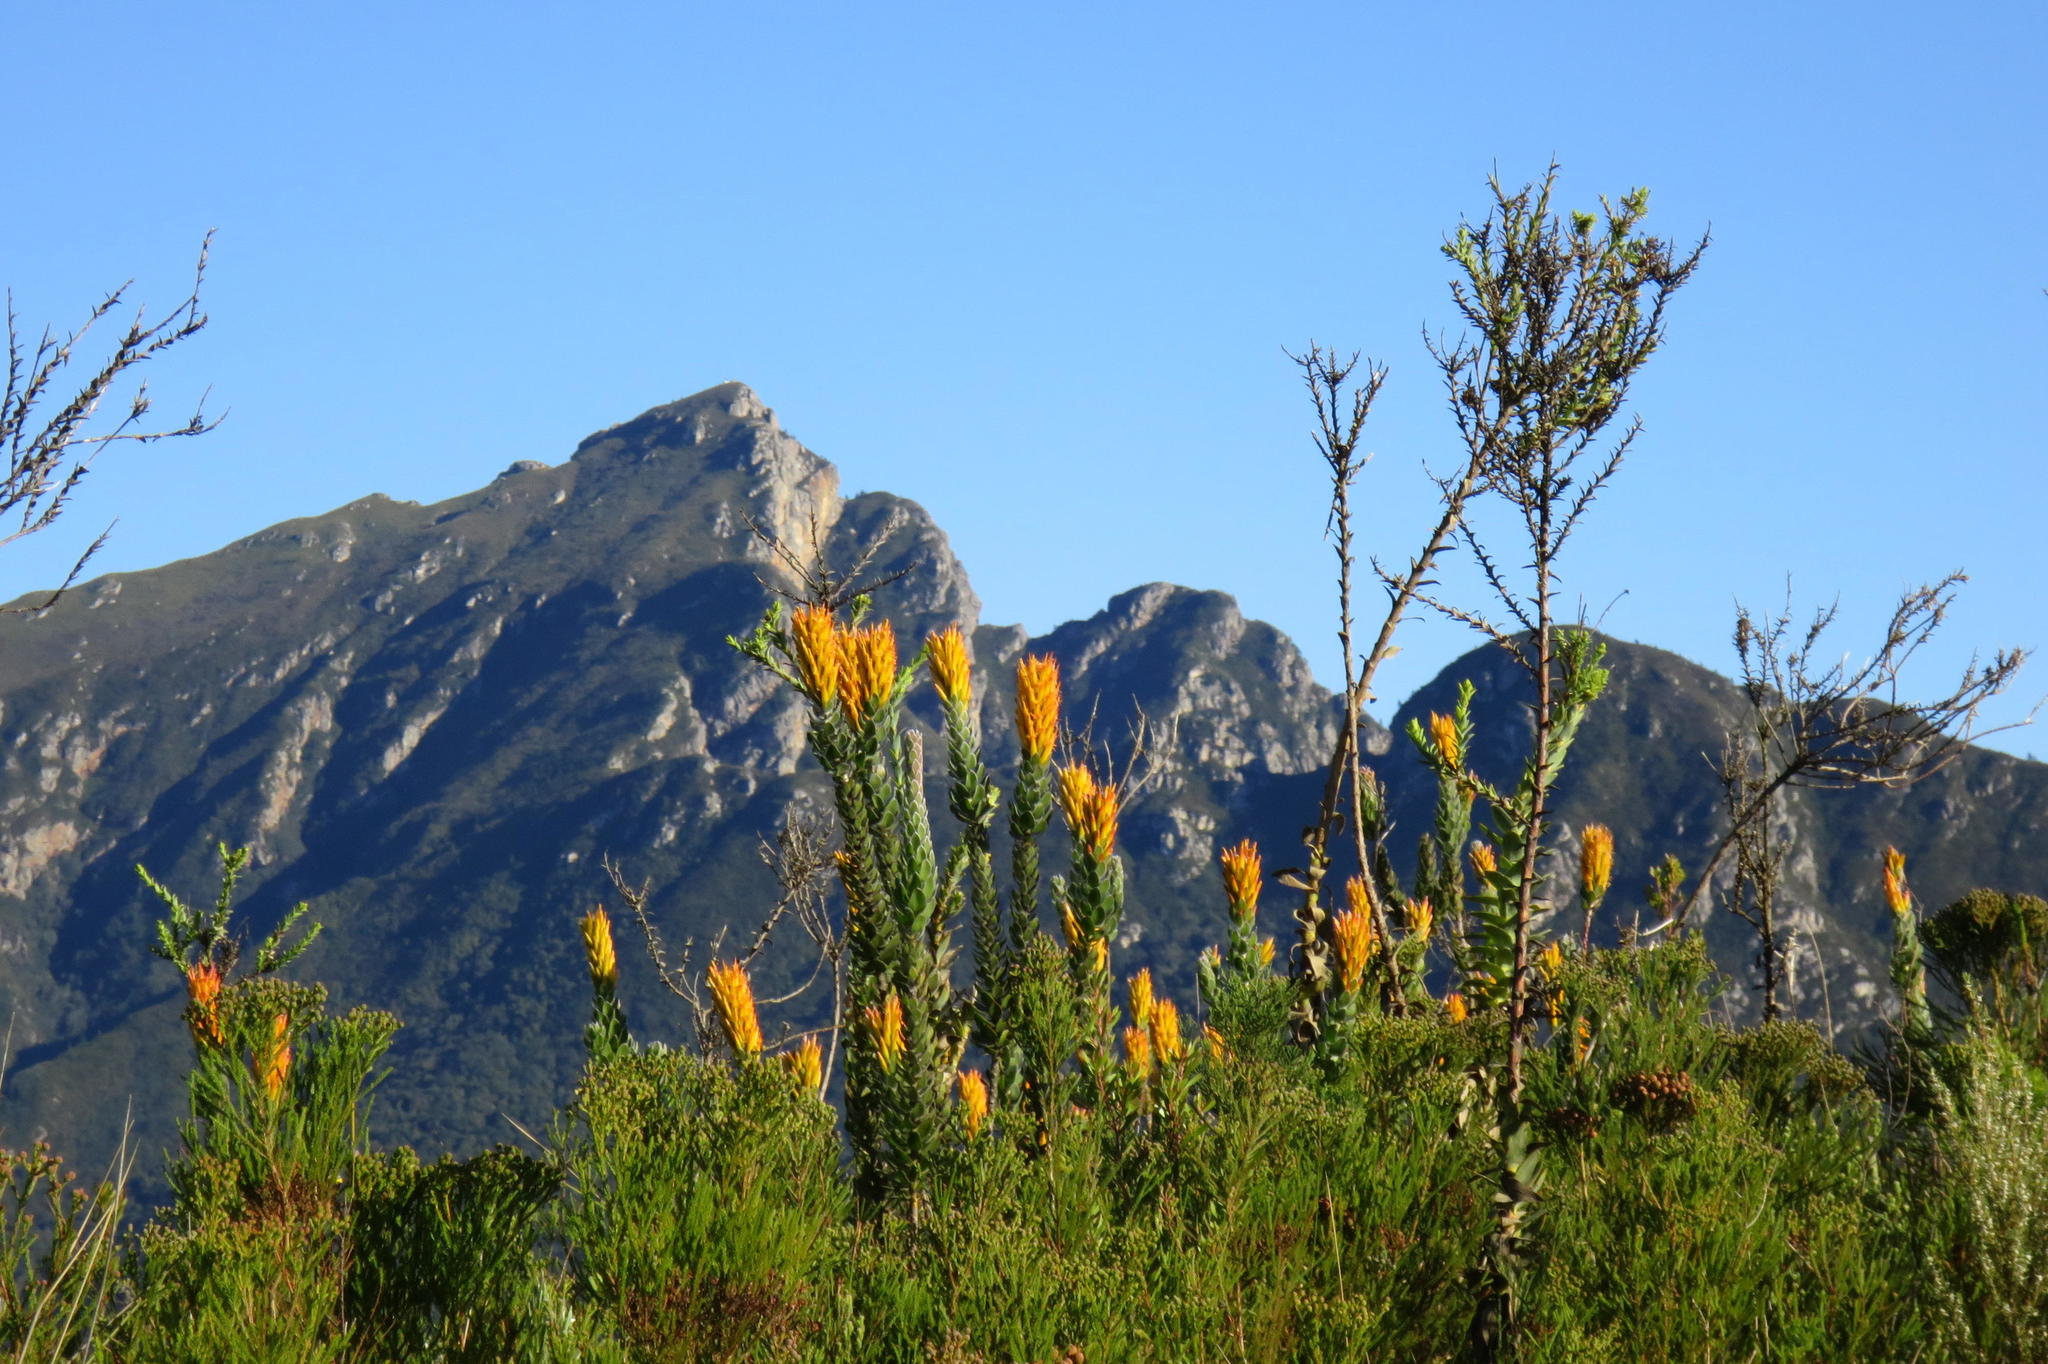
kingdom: Plantae
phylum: Tracheophyta
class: Magnoliopsida
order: Proteales
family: Proteaceae
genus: Mimetes
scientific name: Mimetes pauciflora
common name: Three-flowered pagoda
